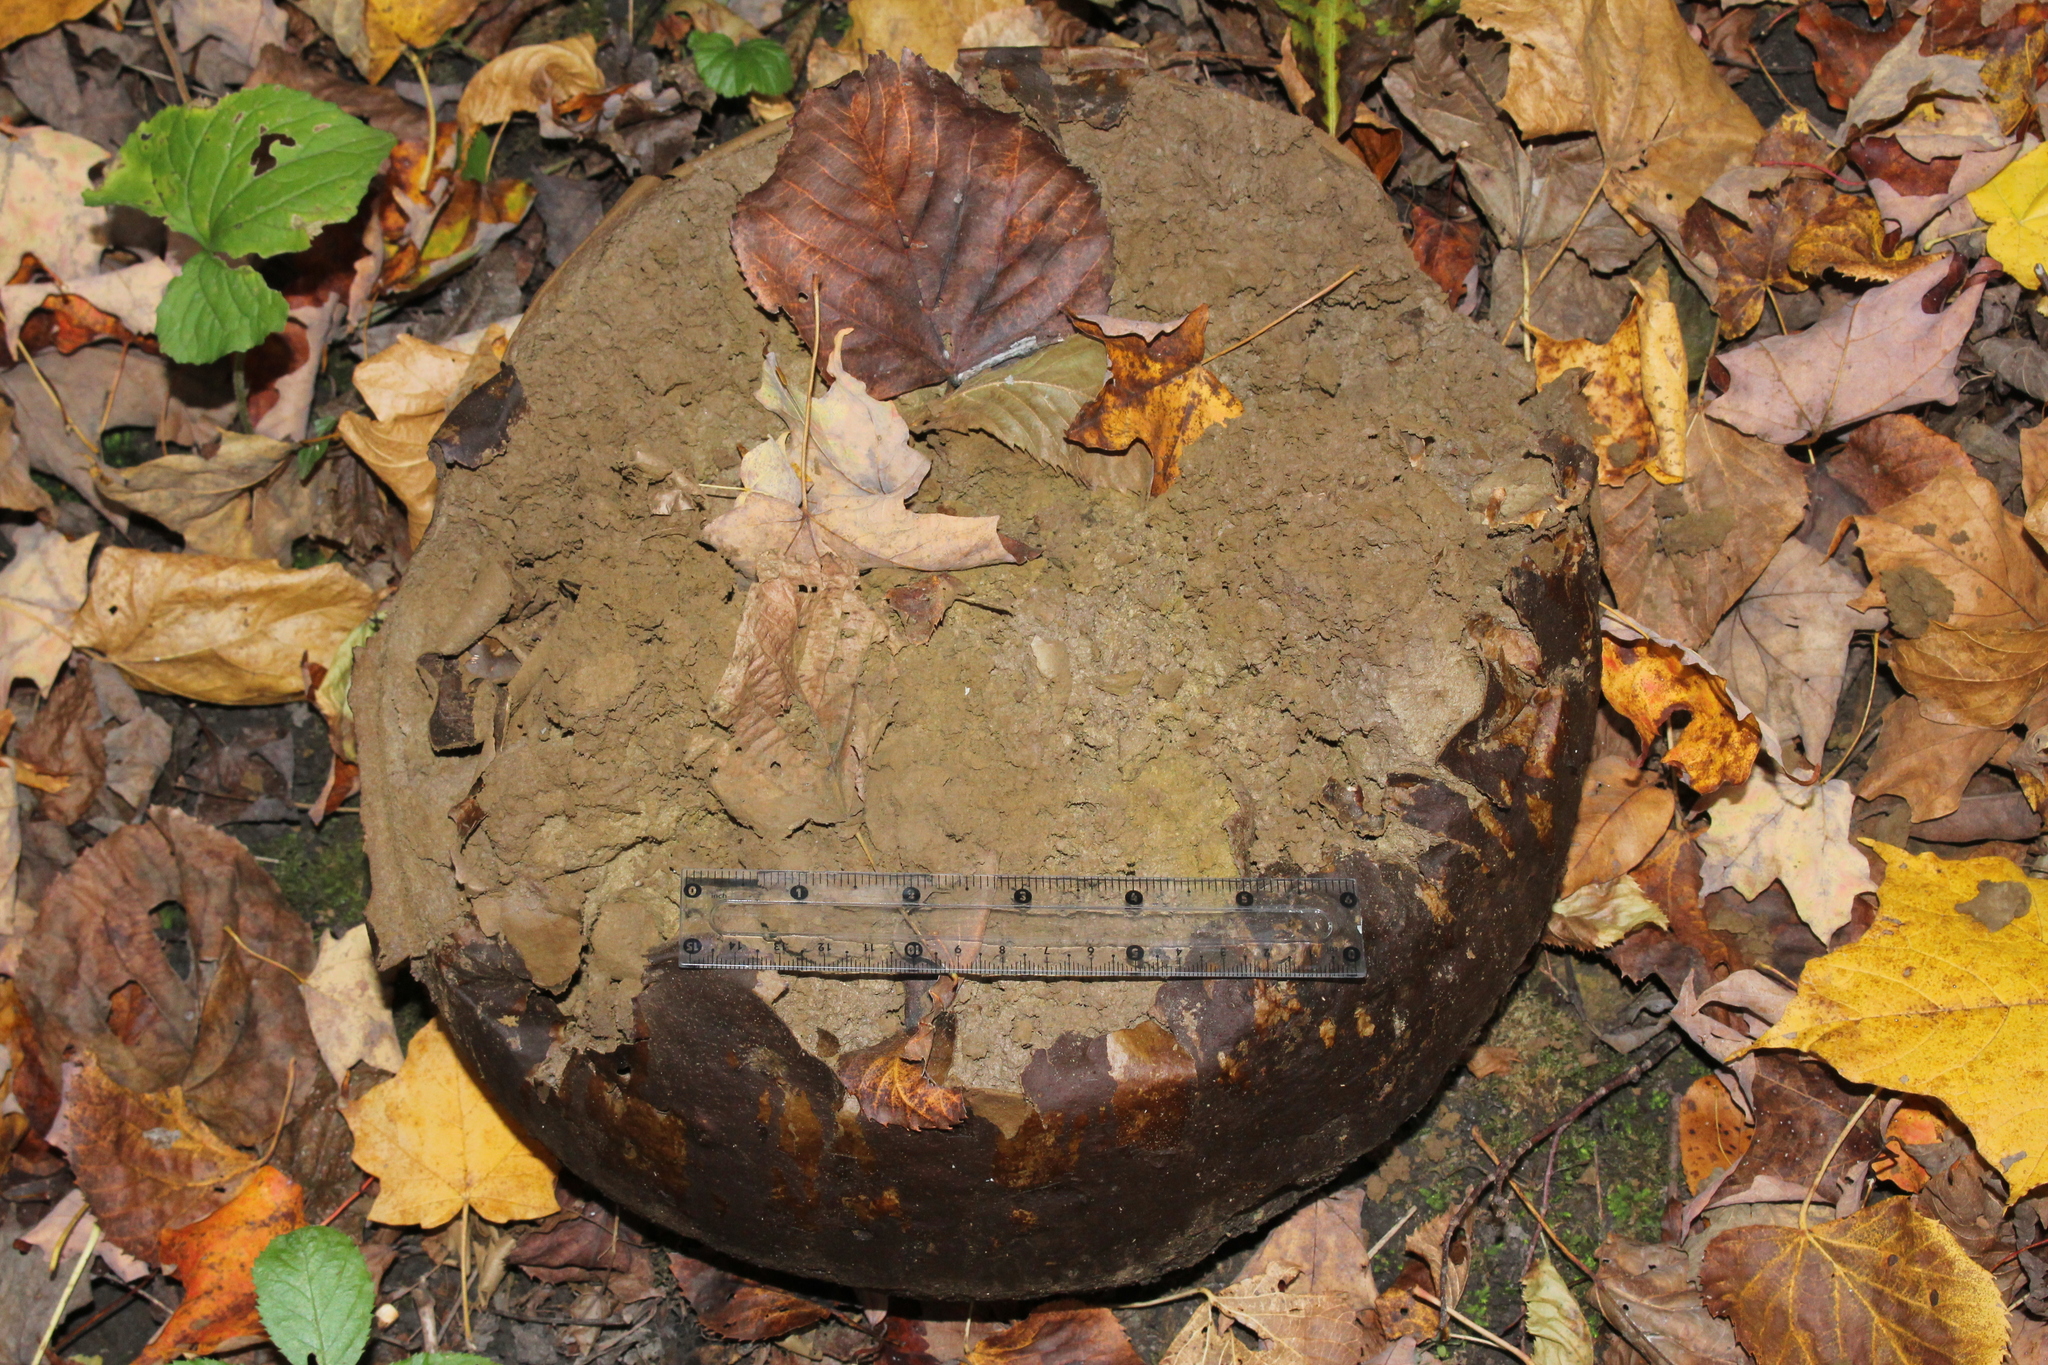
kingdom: Fungi
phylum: Basidiomycota
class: Agaricomycetes
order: Agaricales
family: Lycoperdaceae
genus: Calvatia
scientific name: Calvatia gigantea
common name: Giant puffball
